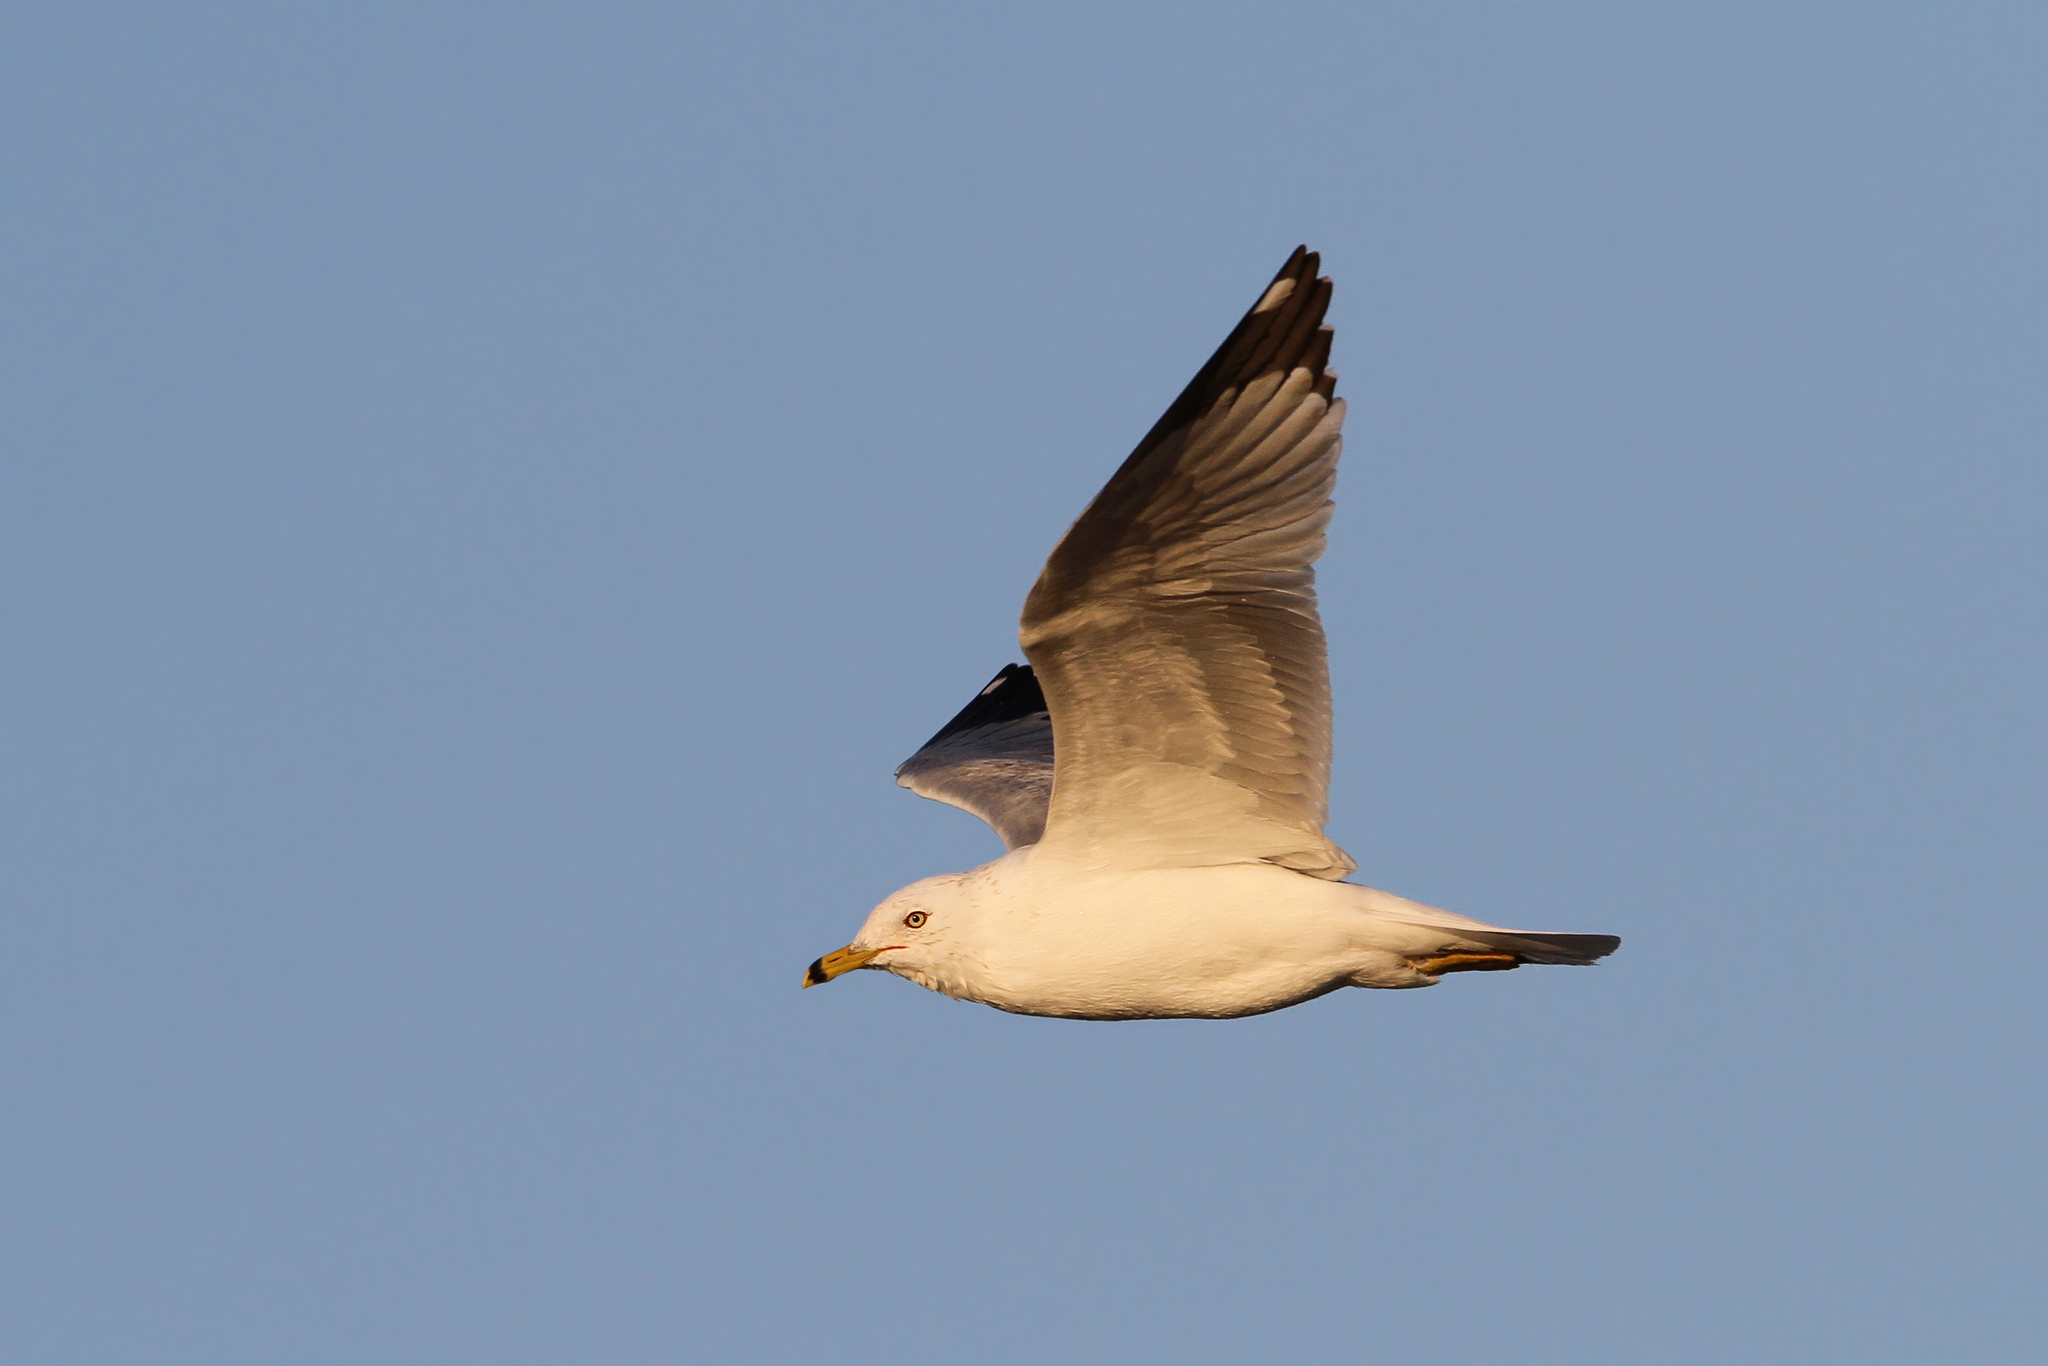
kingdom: Animalia
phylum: Chordata
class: Aves
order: Charadriiformes
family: Laridae
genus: Larus
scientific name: Larus delawarensis
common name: Ring-billed gull
